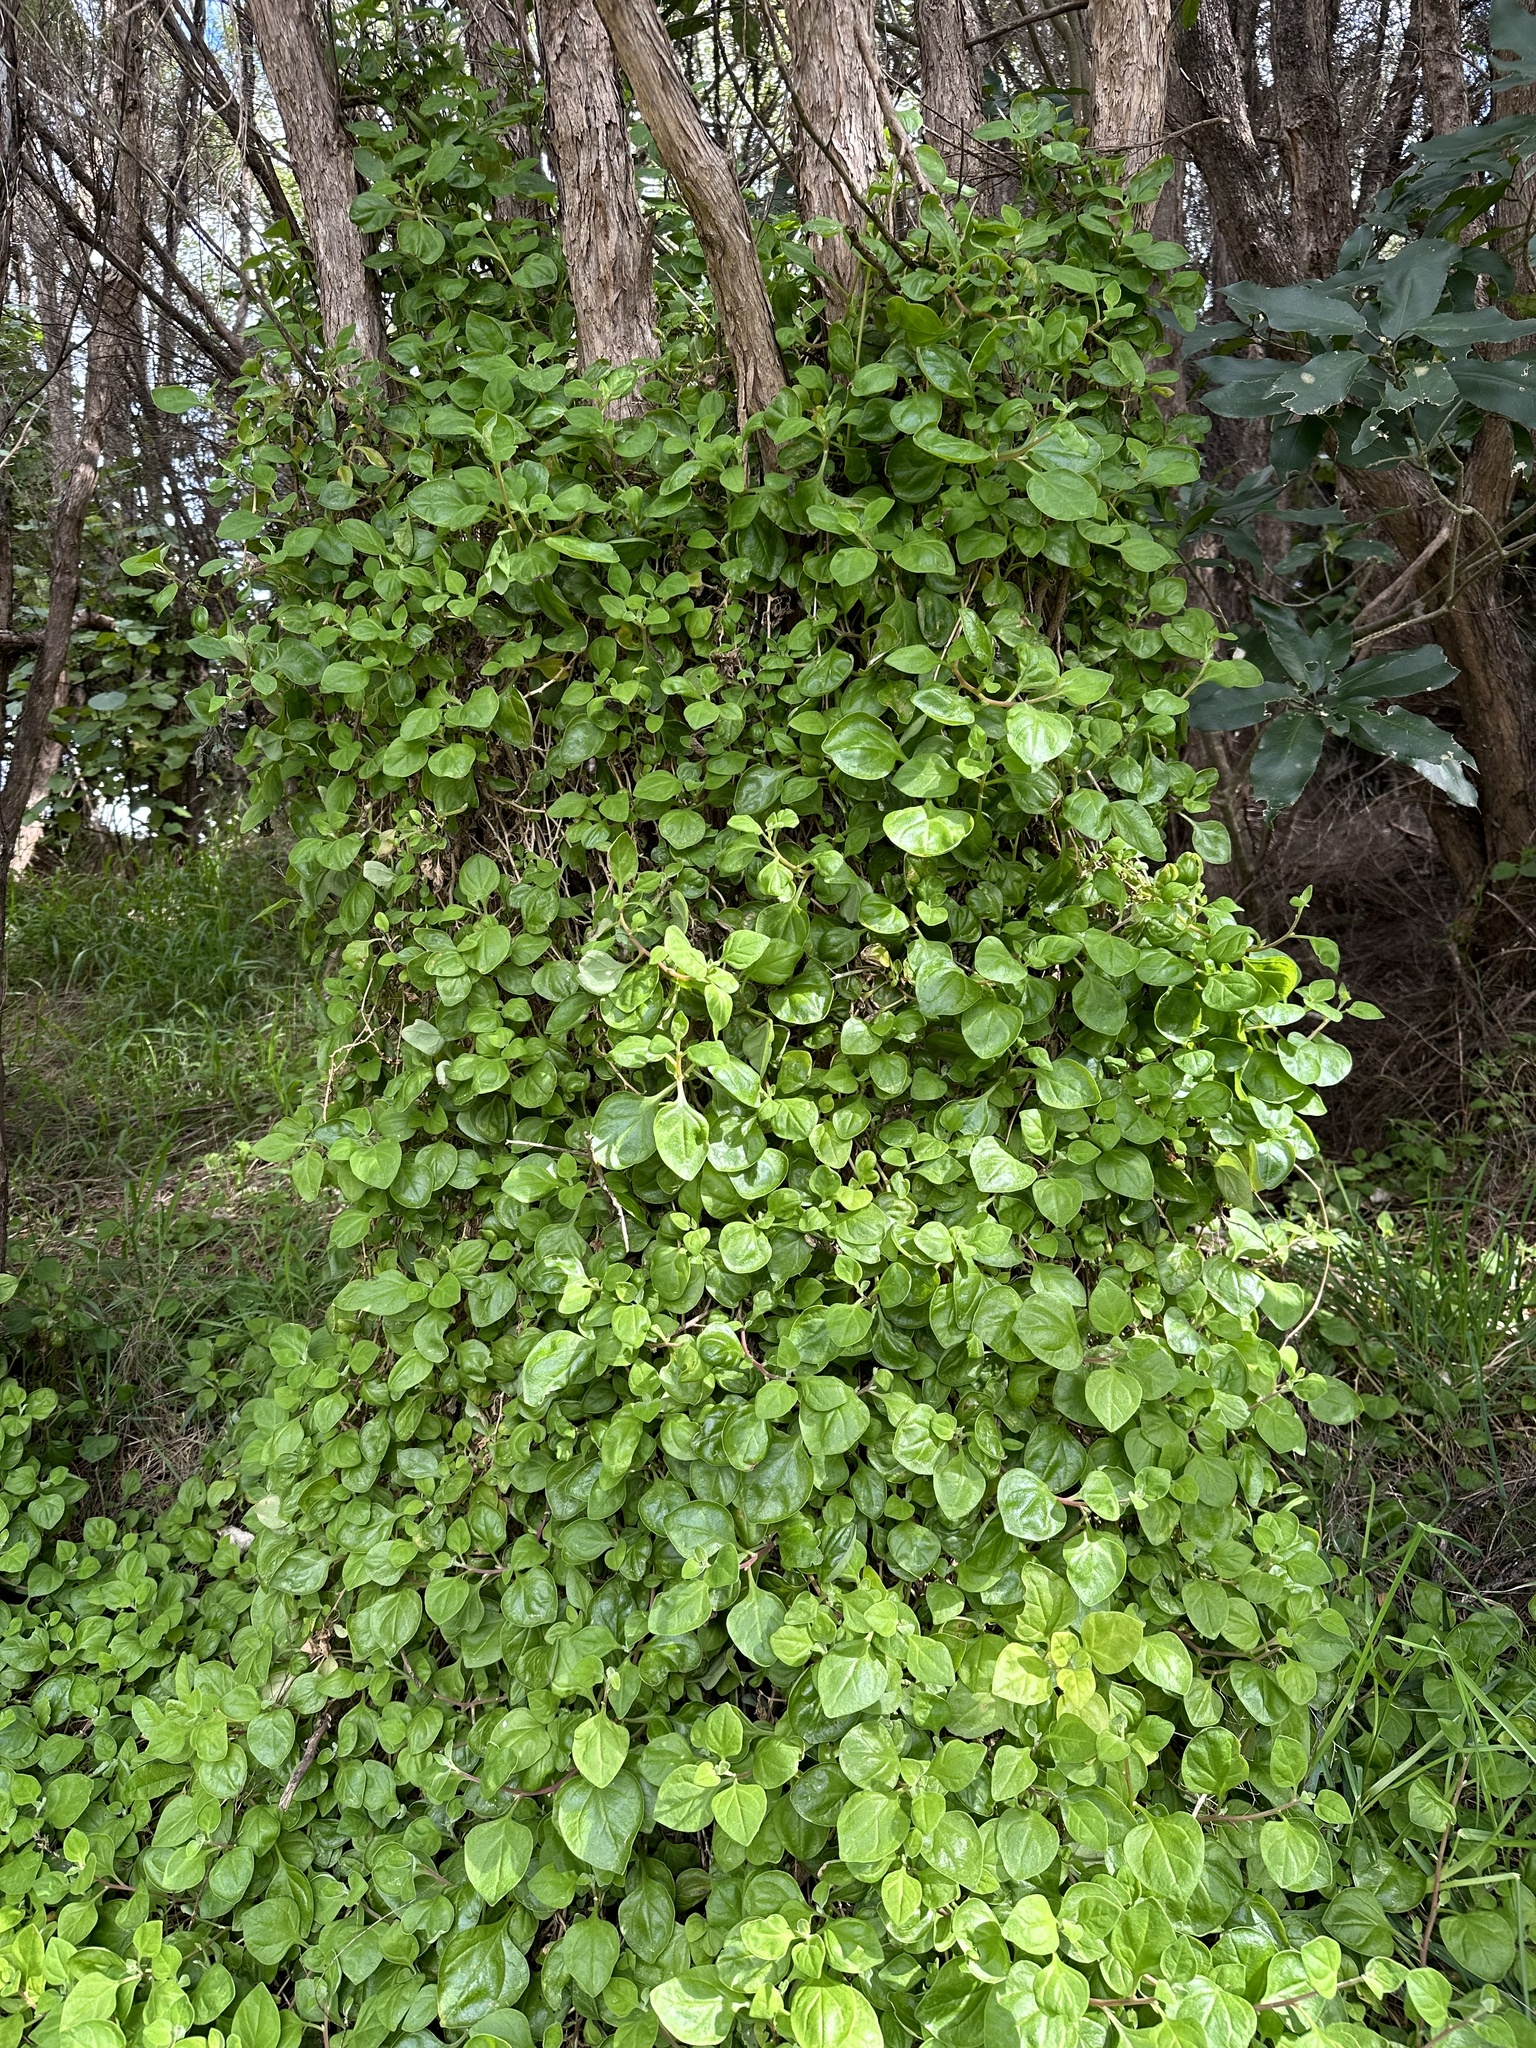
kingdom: Plantae
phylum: Tracheophyta
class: Magnoliopsida
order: Caryophyllales
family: Aizoaceae
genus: Tetragonia
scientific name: Tetragonia implexicoma
